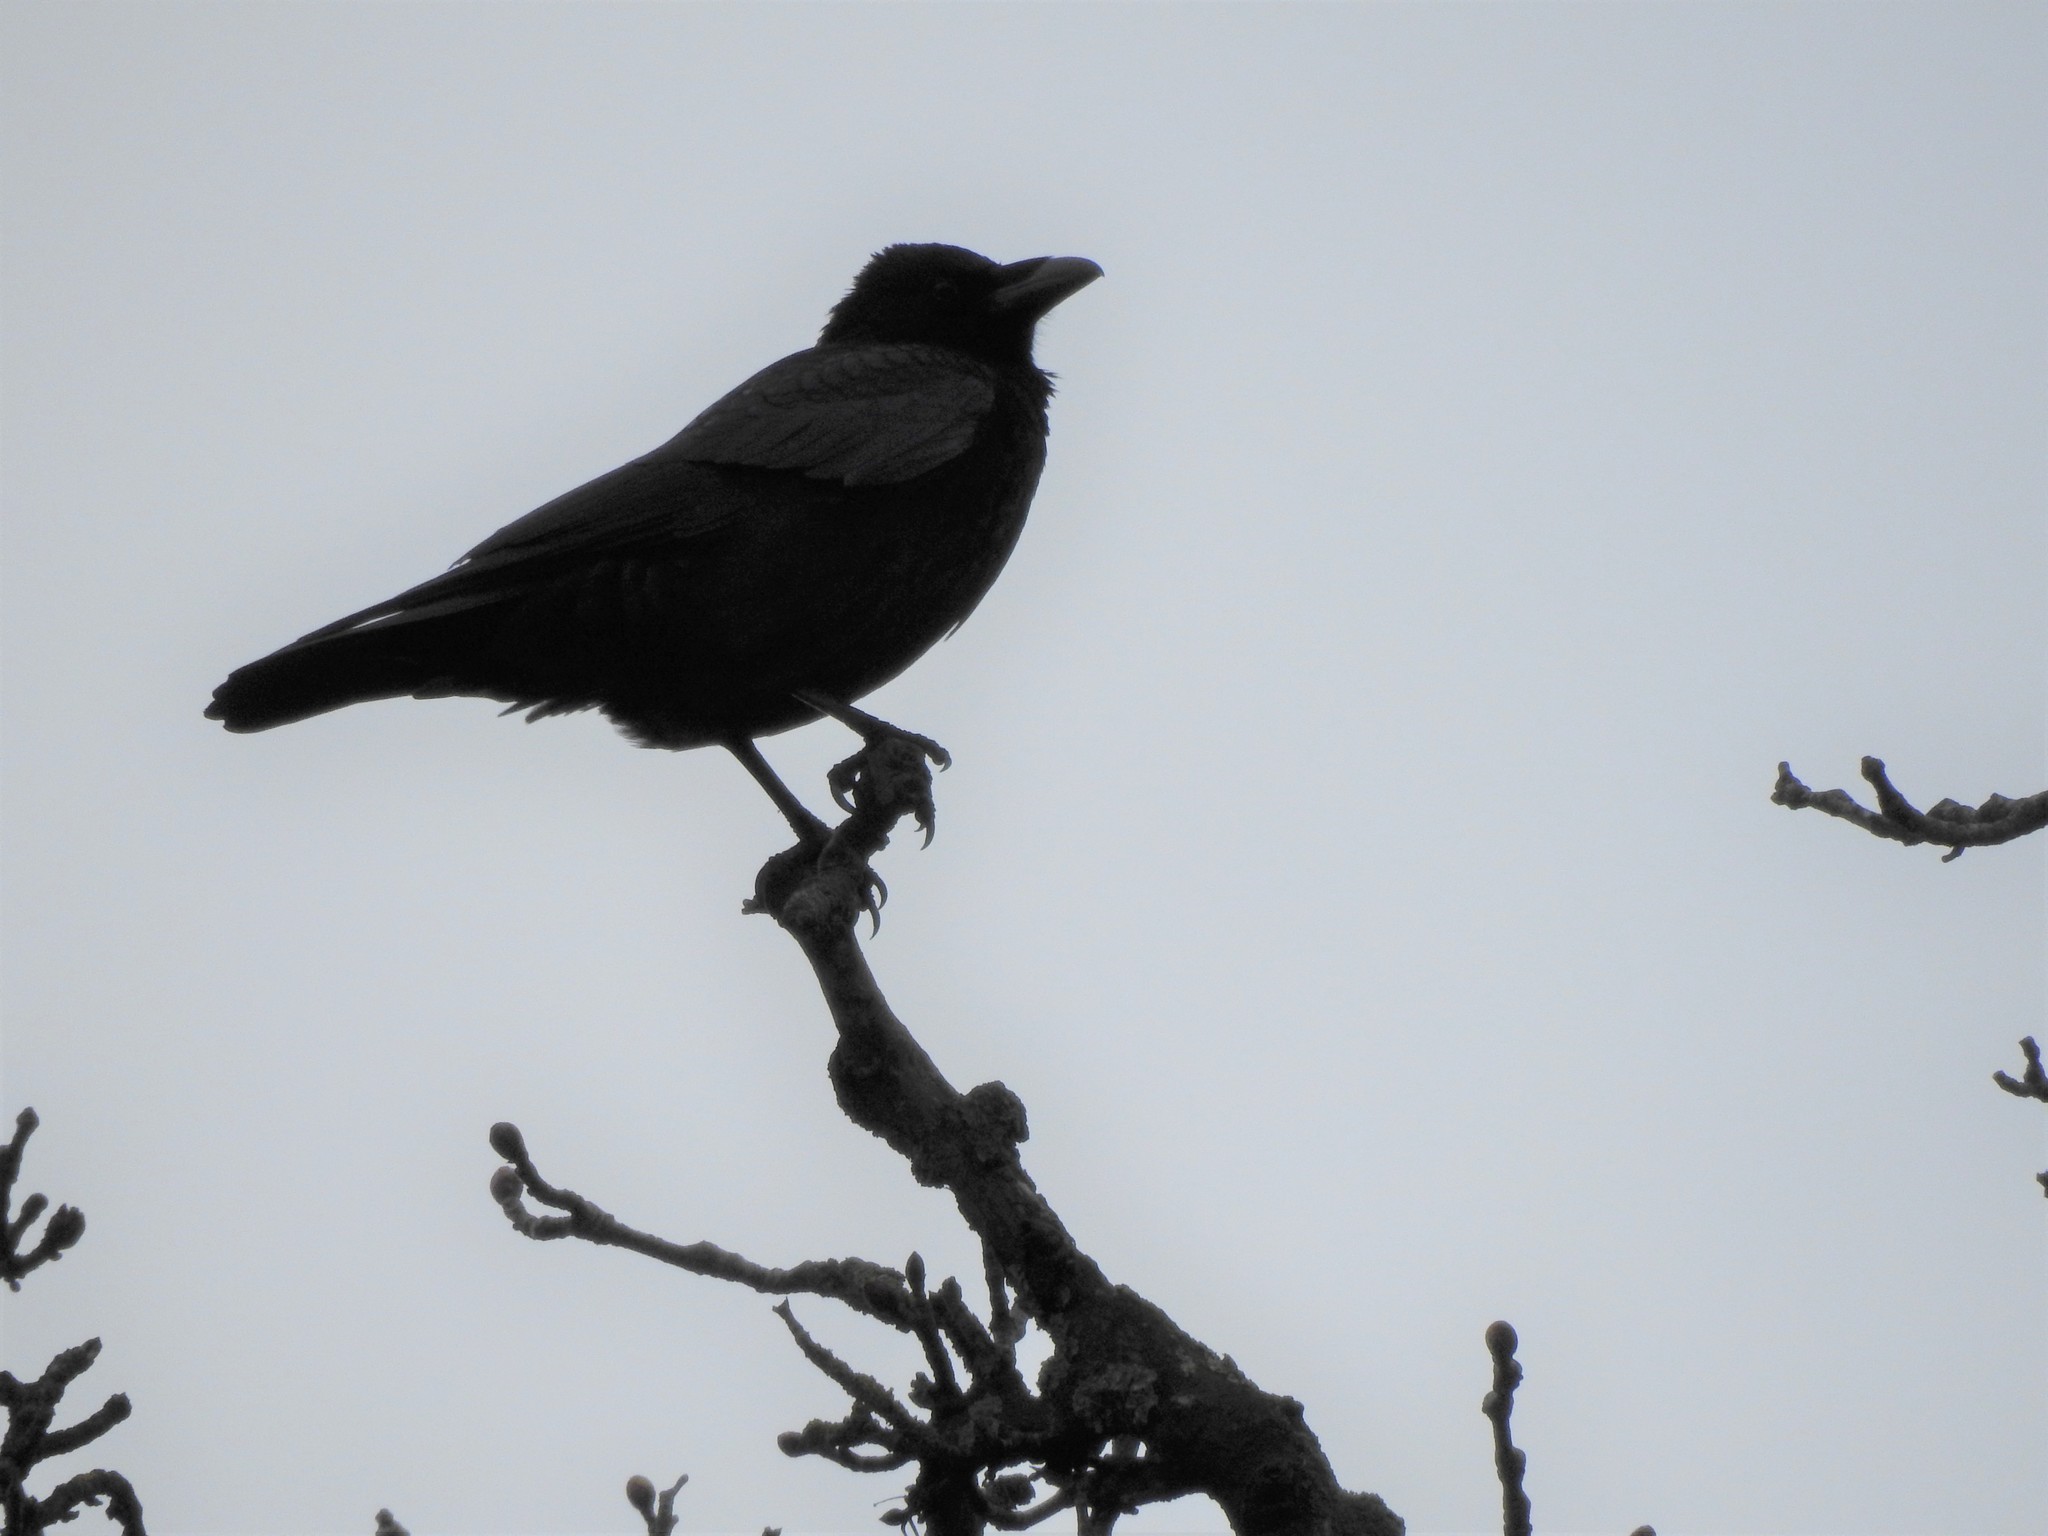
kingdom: Animalia
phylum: Chordata
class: Aves
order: Passeriformes
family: Corvidae
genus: Corvus
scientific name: Corvus corone
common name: Carrion crow
